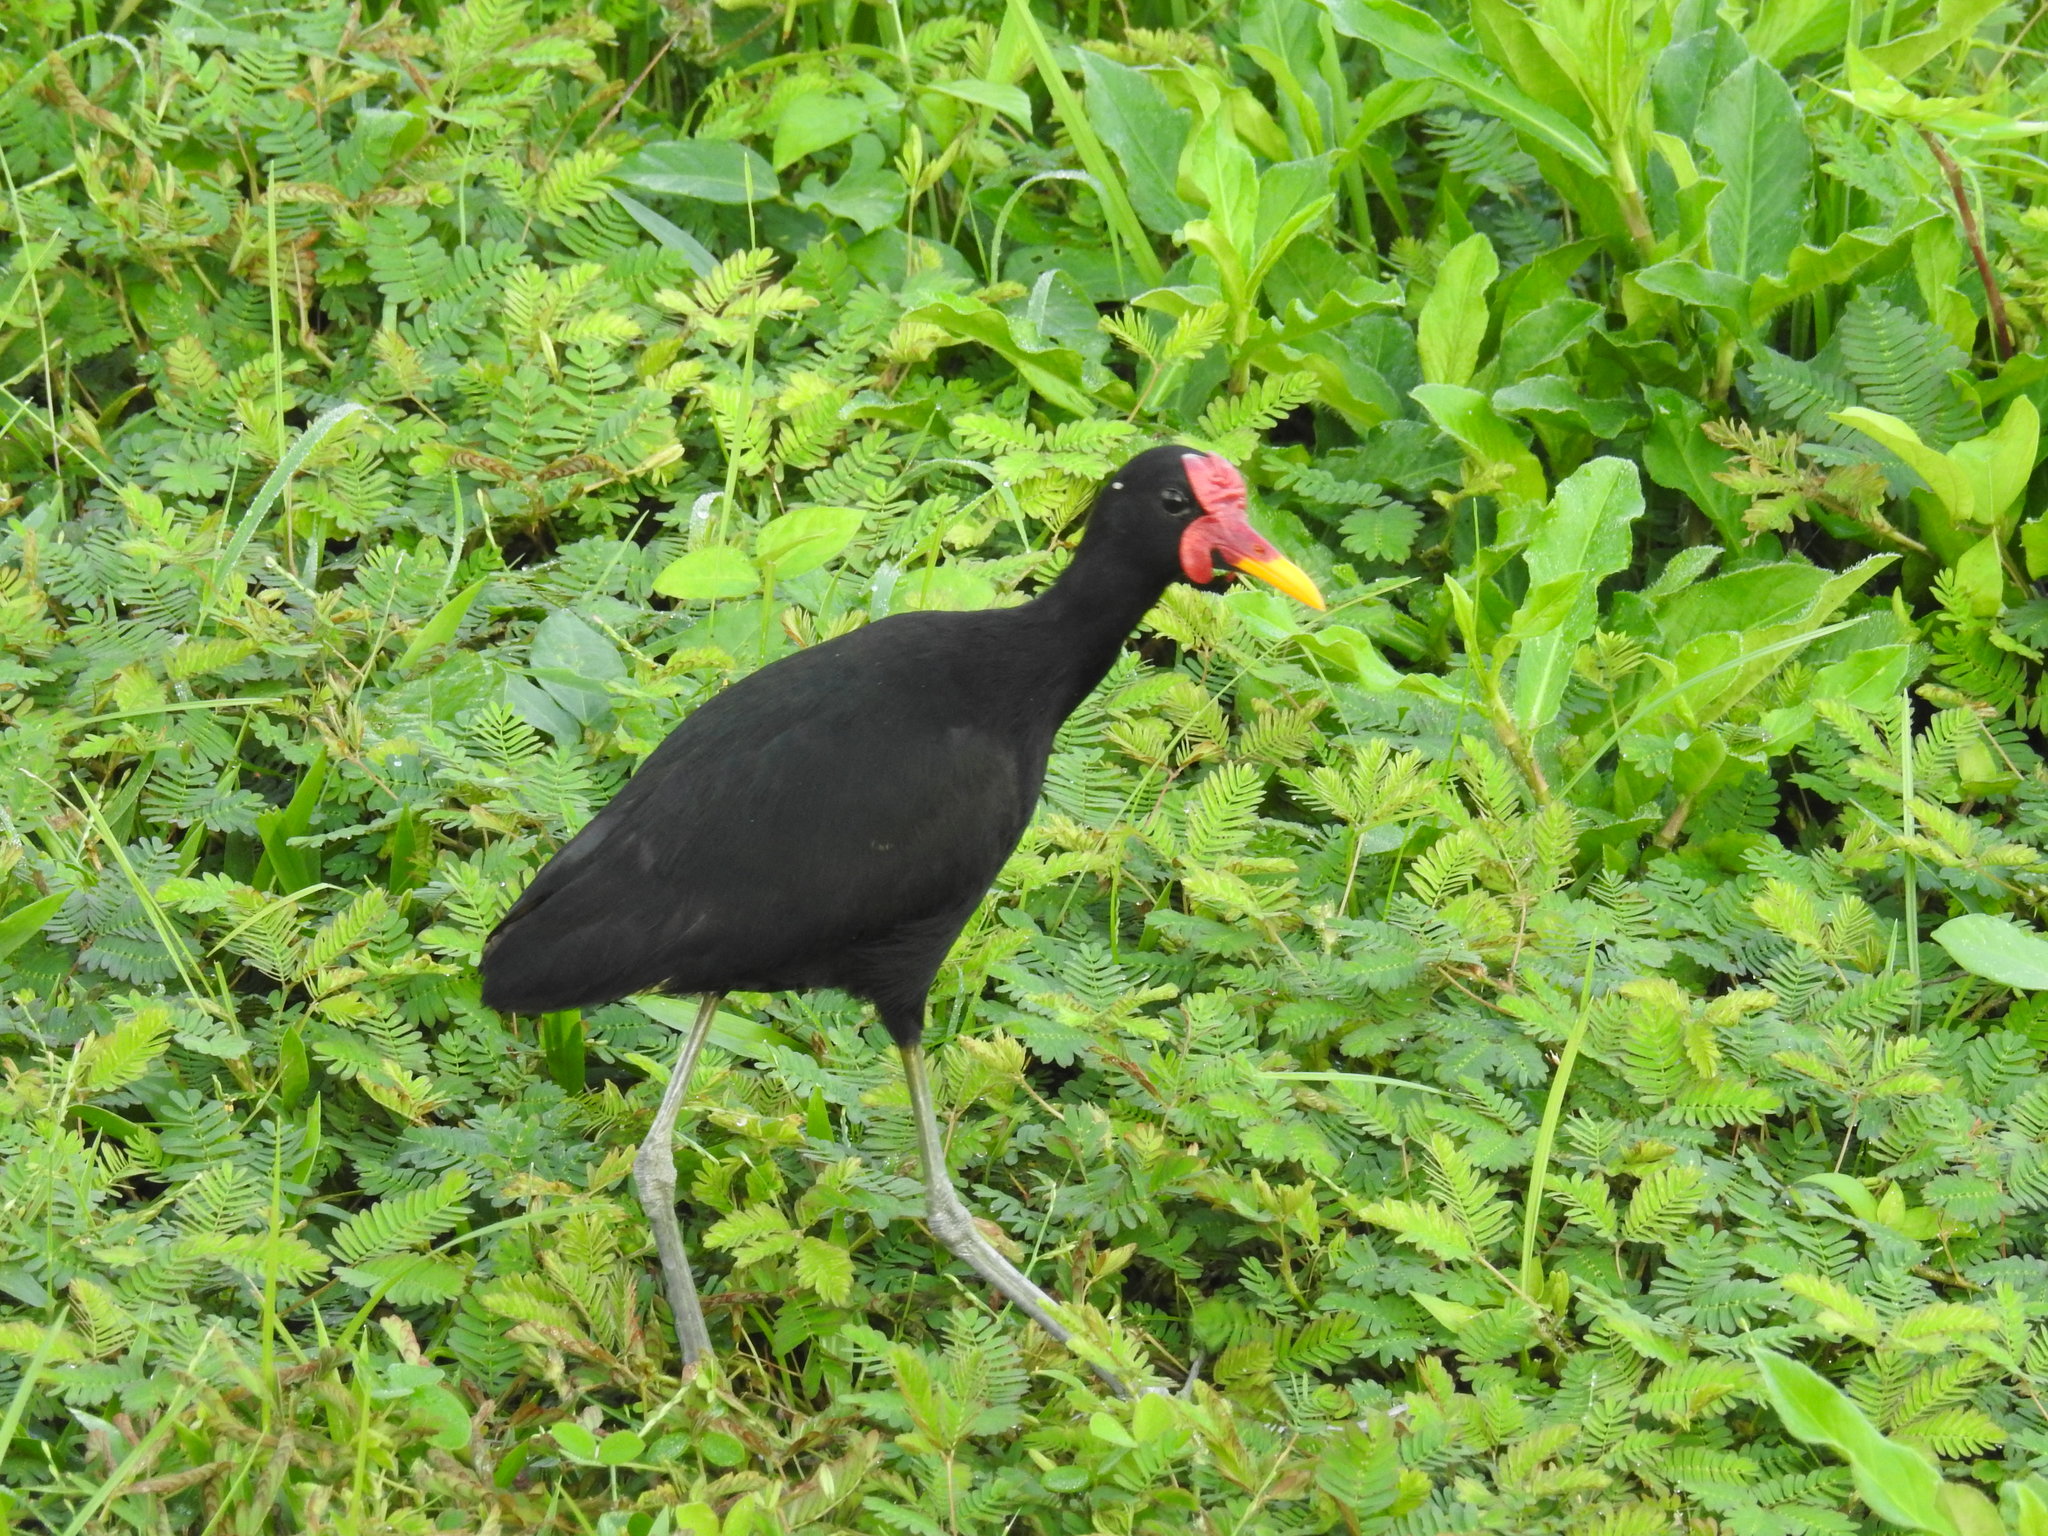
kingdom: Animalia
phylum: Chordata
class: Aves
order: Charadriiformes
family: Jacanidae
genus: Jacana
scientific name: Jacana jacana
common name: Wattled jacana
